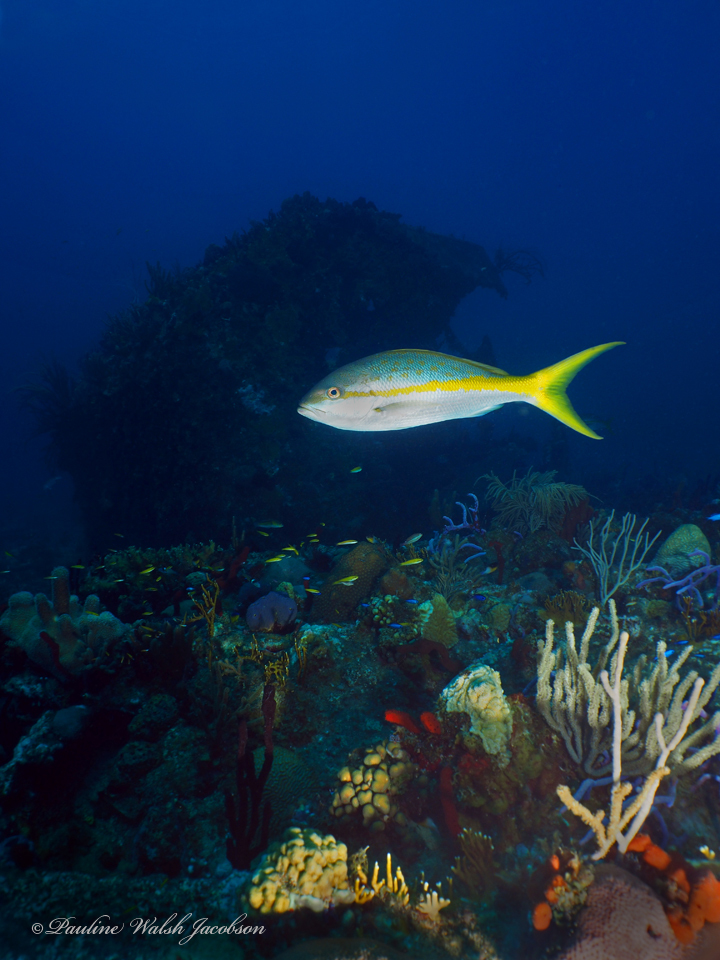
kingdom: Animalia
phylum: Chordata
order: Perciformes
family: Lutjanidae
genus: Ocyurus
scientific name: Ocyurus chrysurus
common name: Yellowtail snapper
